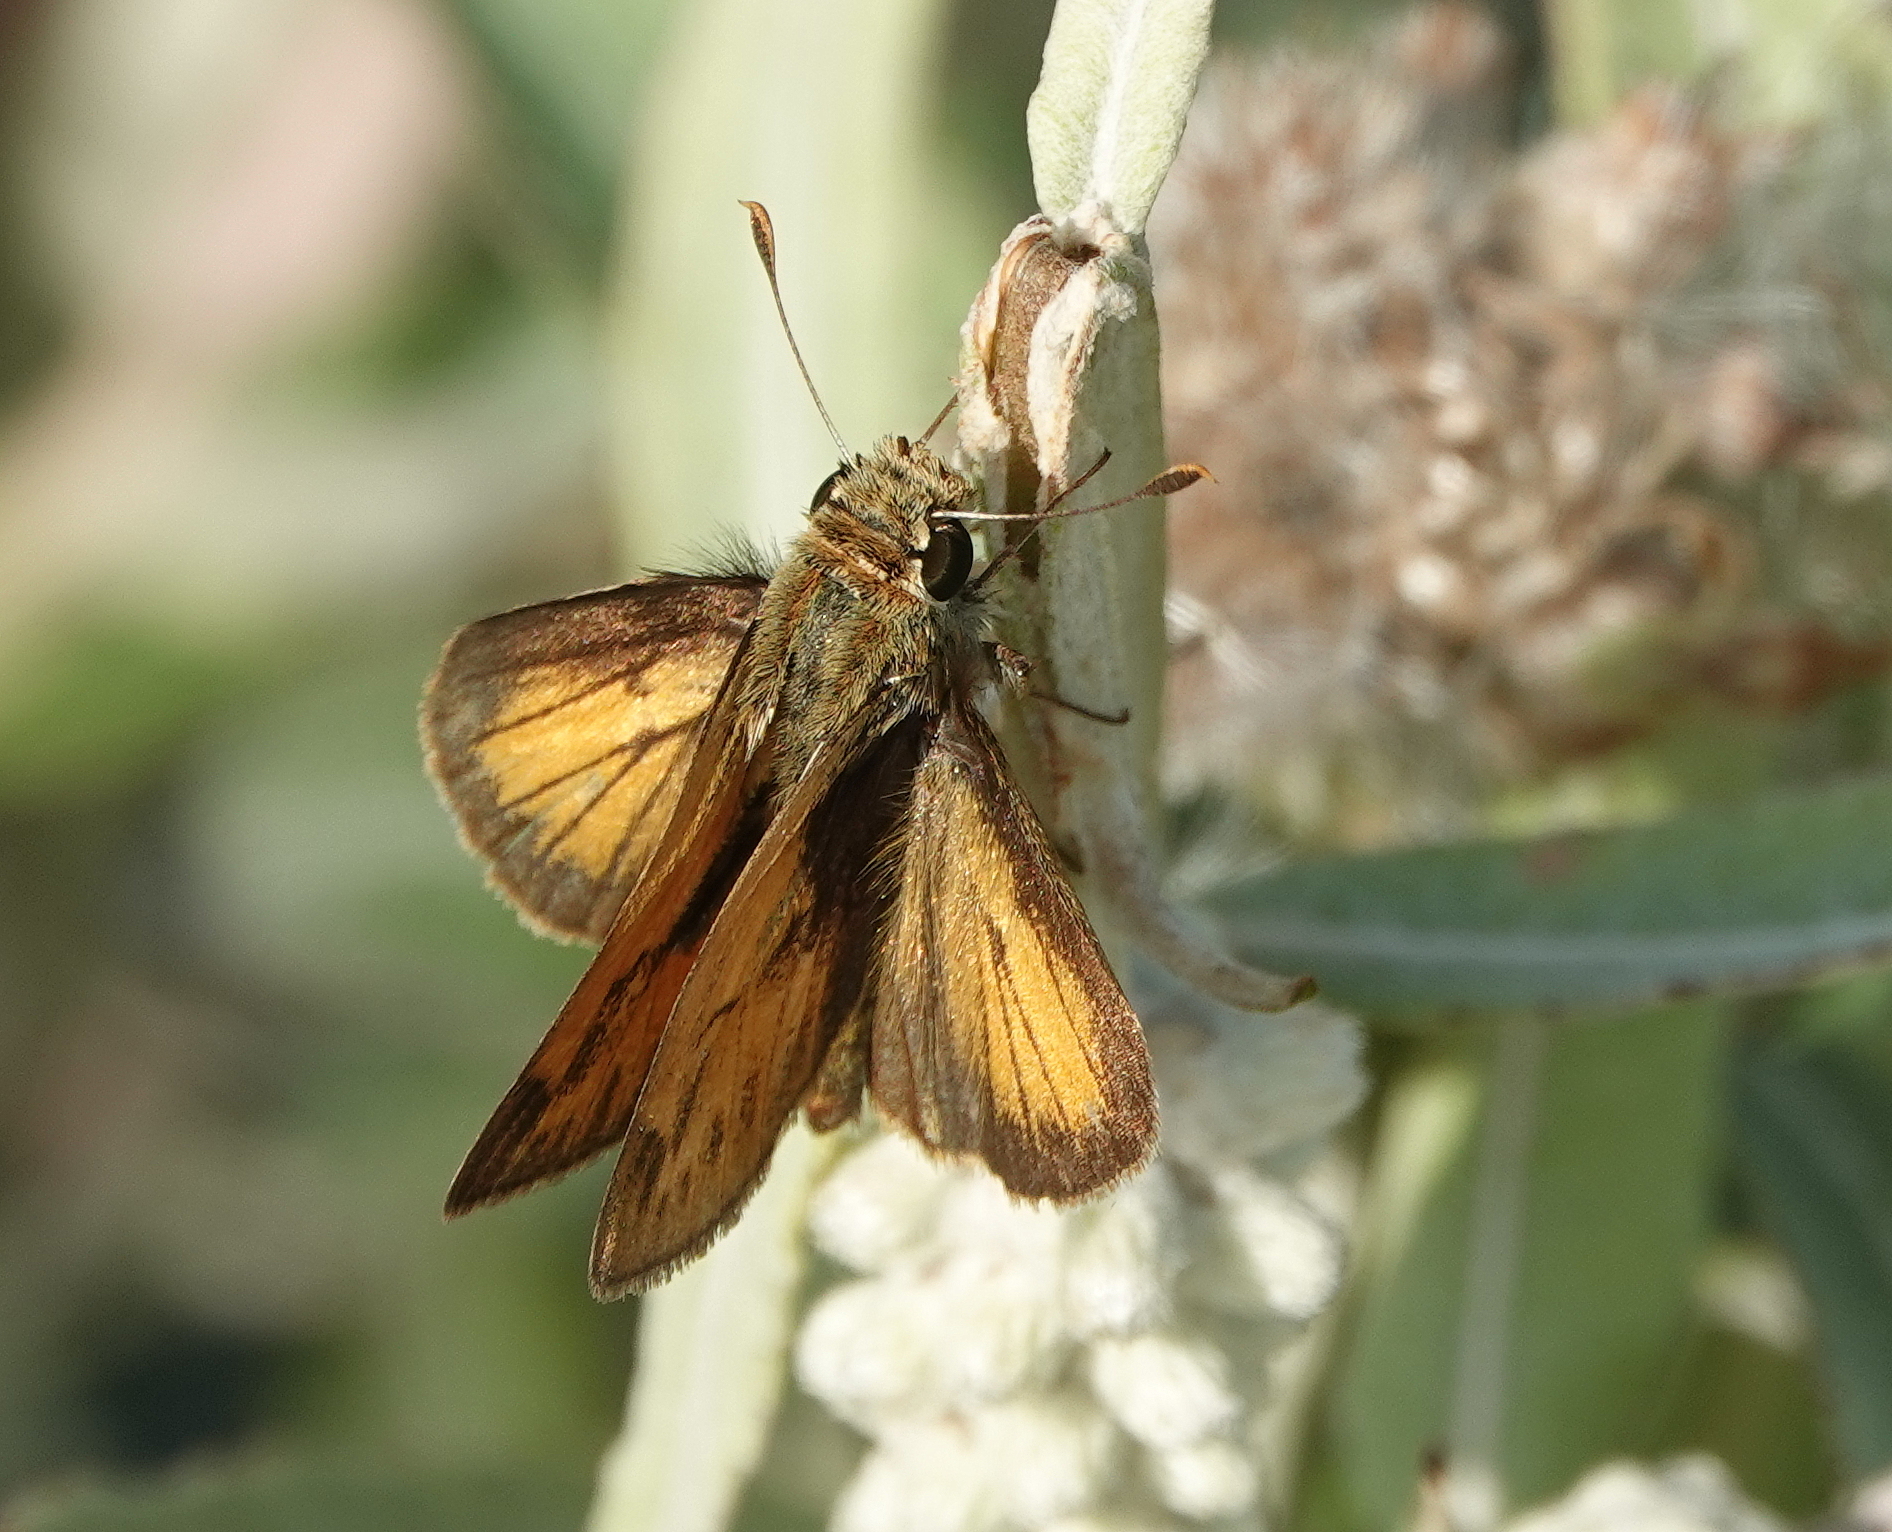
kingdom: Animalia
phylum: Arthropoda
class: Insecta
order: Lepidoptera
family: Hesperiidae
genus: Polites
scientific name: Polites vibex
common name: Whirlabout
